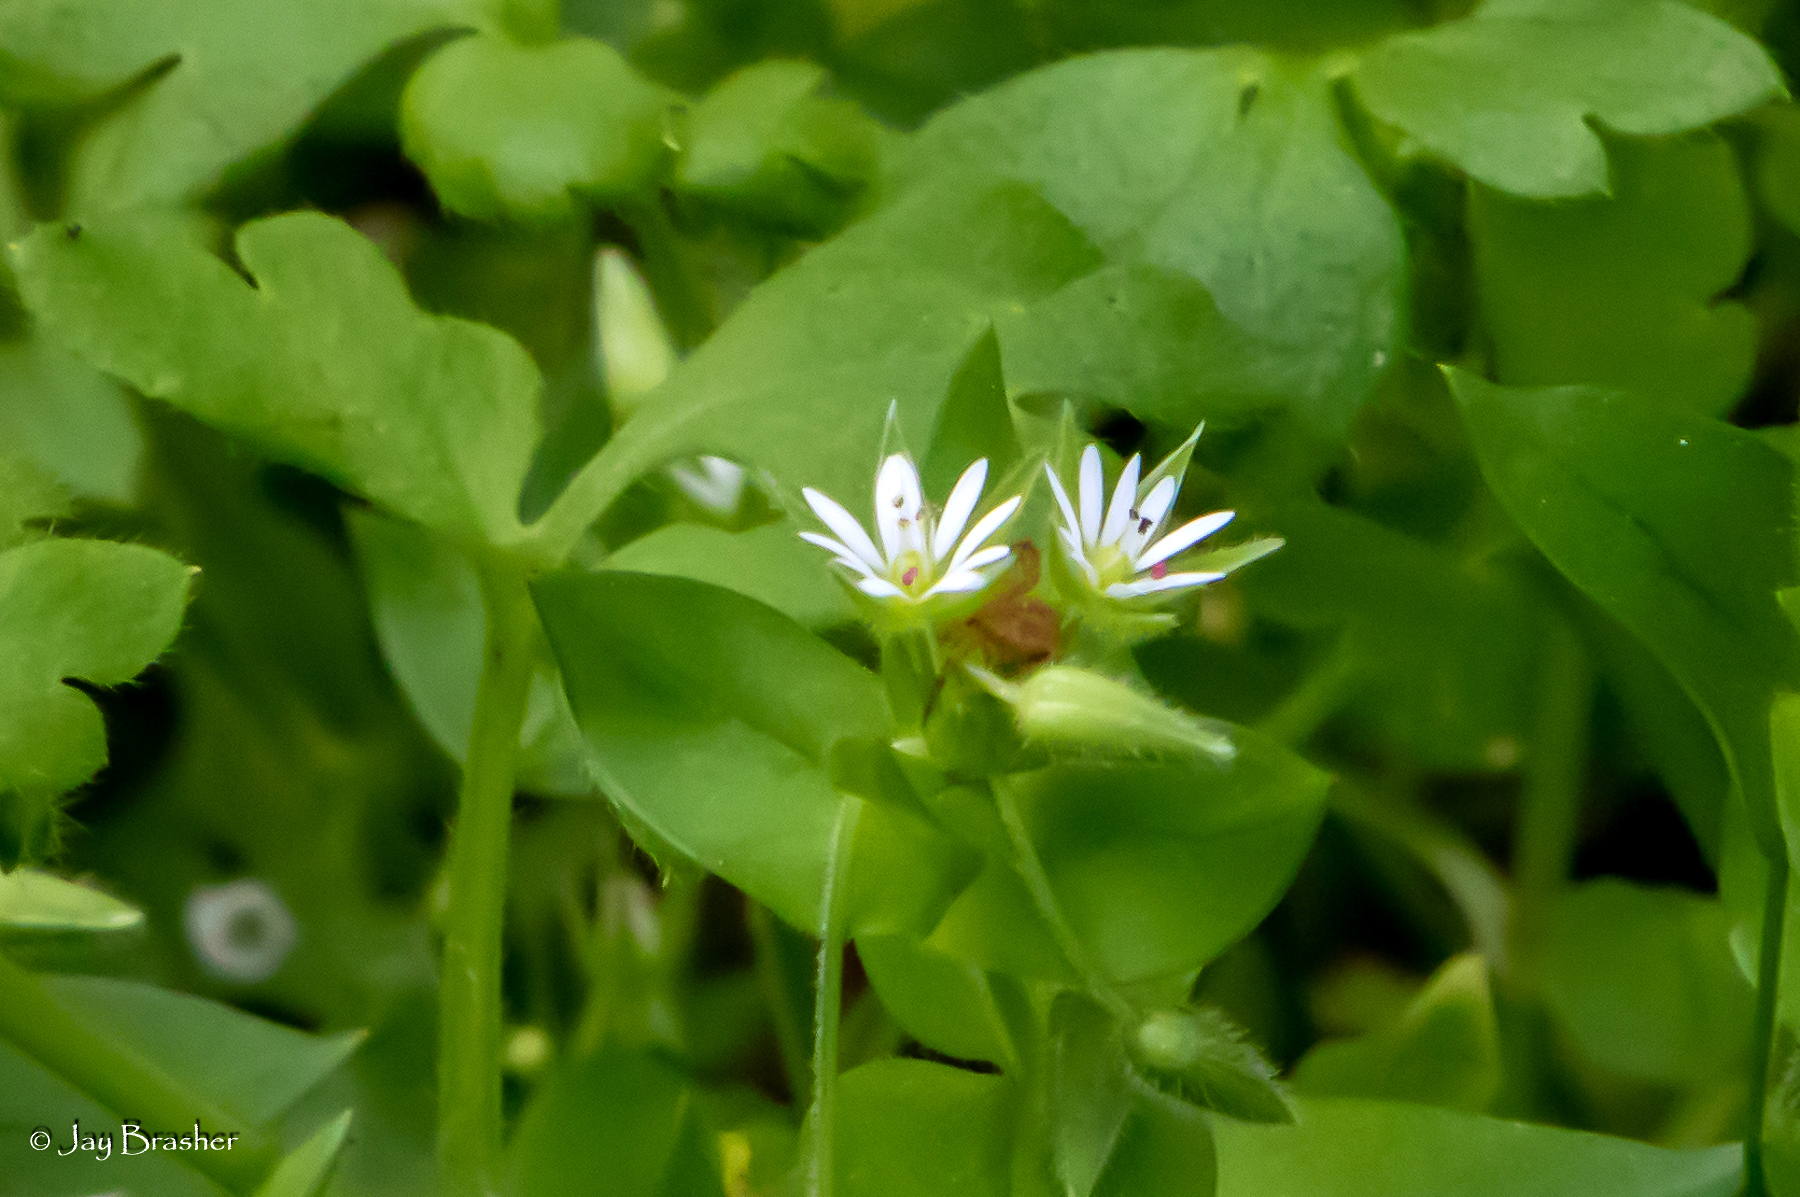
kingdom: Plantae
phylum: Tracheophyta
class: Magnoliopsida
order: Caryophyllales
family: Caryophyllaceae
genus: Stellaria
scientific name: Stellaria media
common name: Common chickweed
